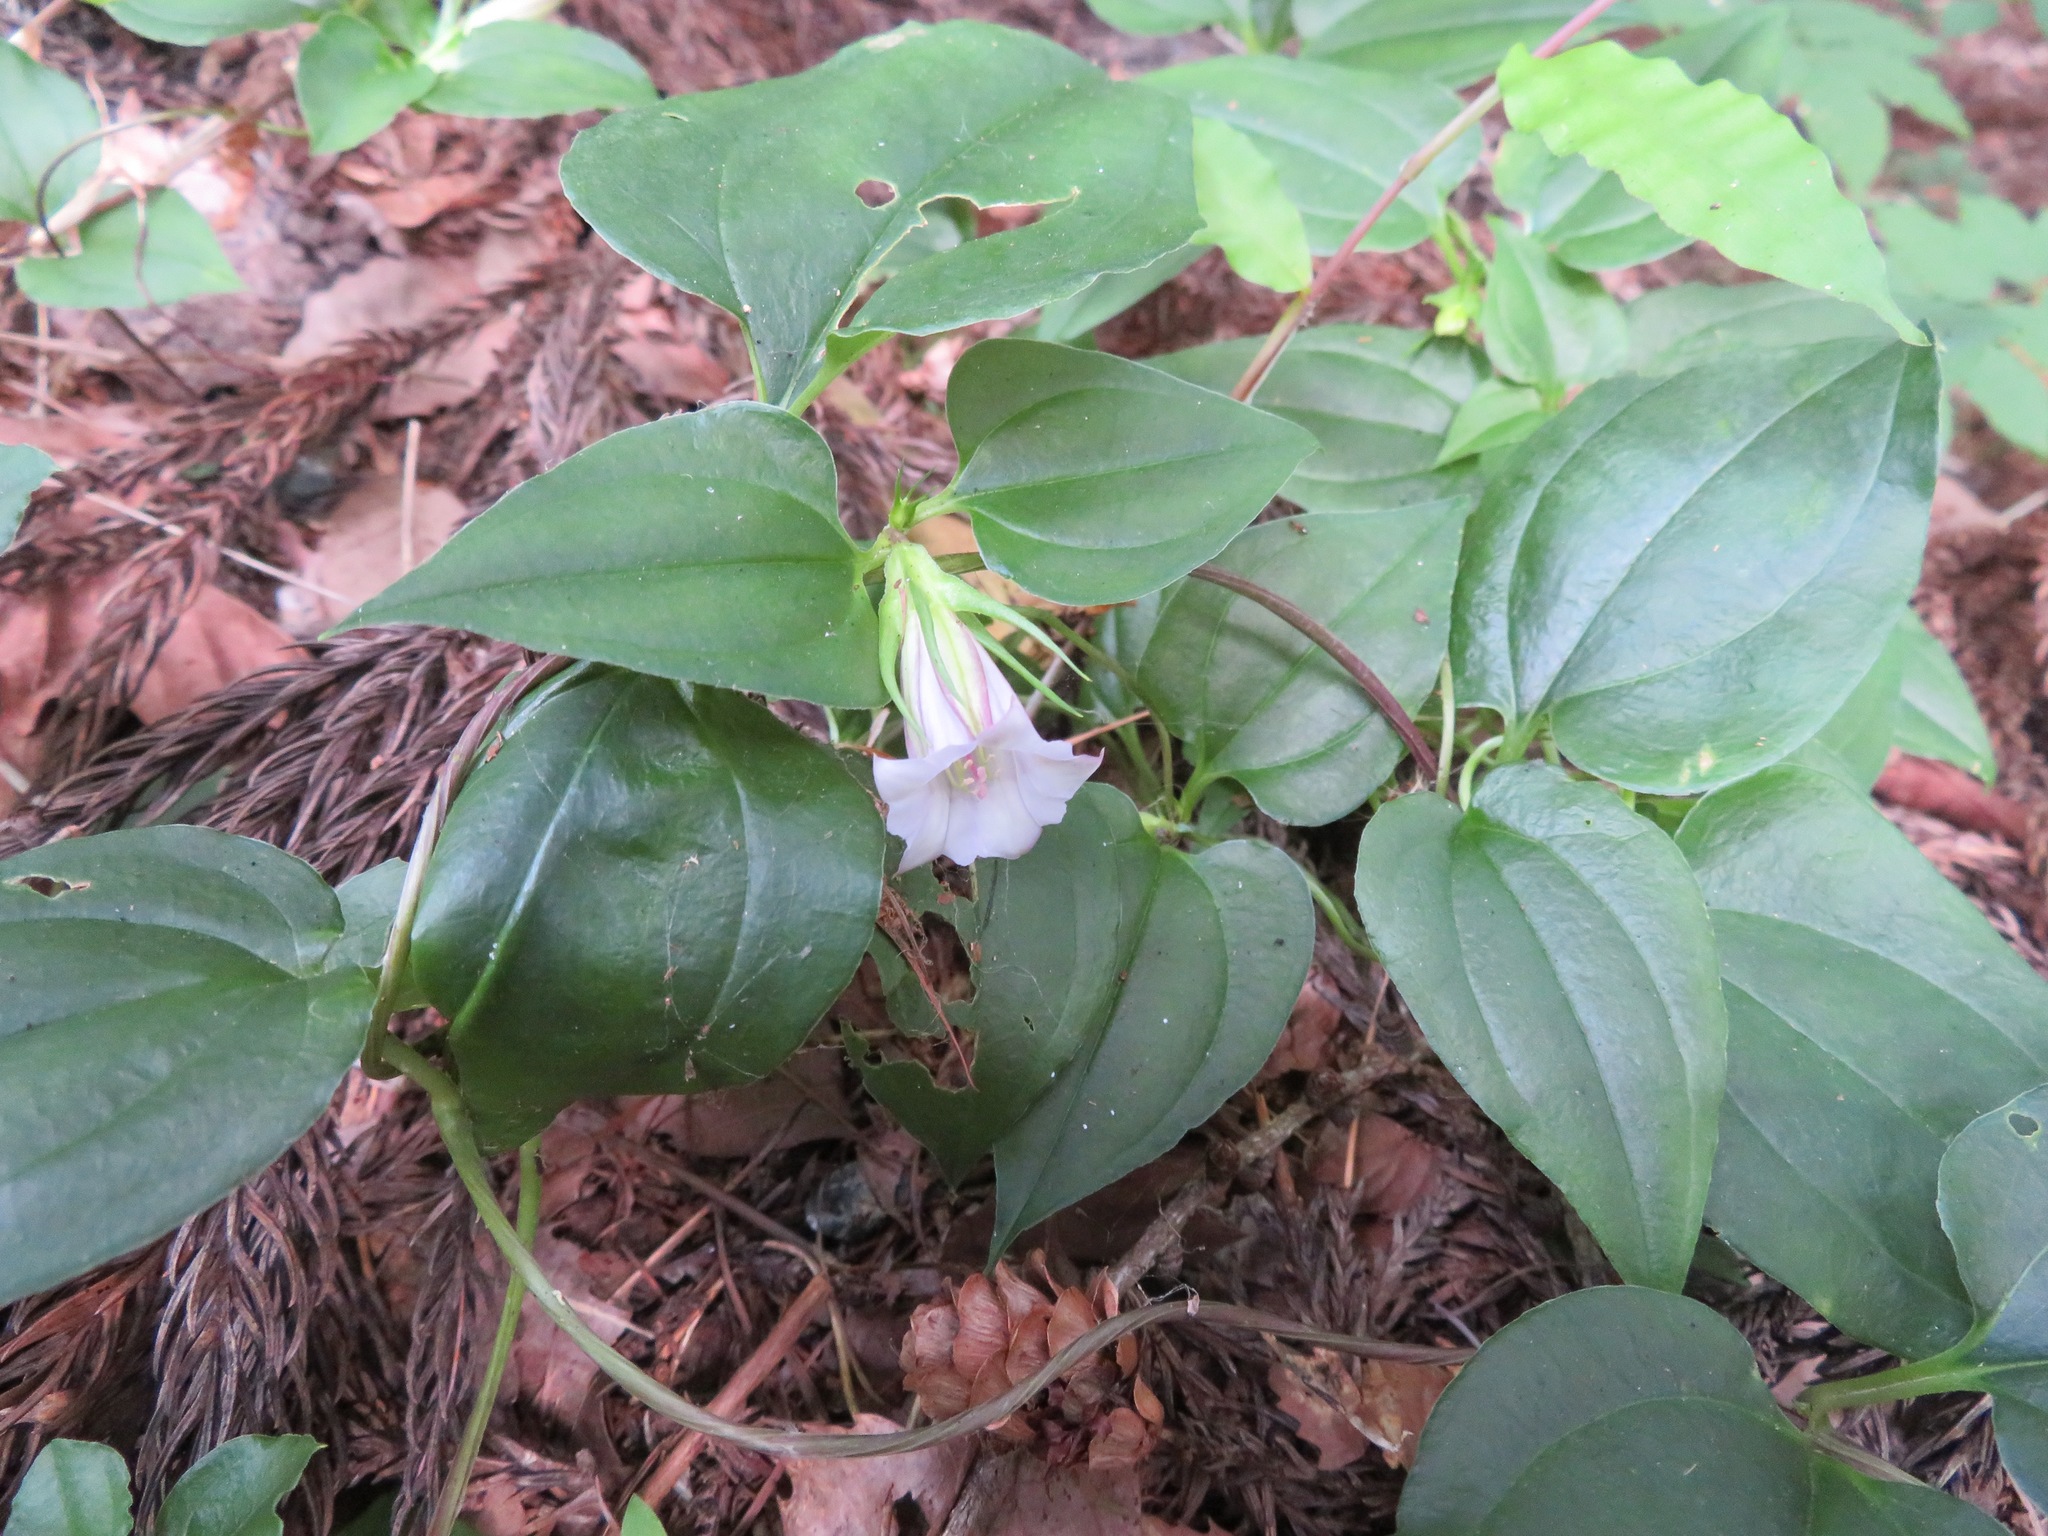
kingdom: Plantae
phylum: Tracheophyta
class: Magnoliopsida
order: Gentianales
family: Gentianaceae
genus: Tripterospermum
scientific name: Tripterospermum trinervium
